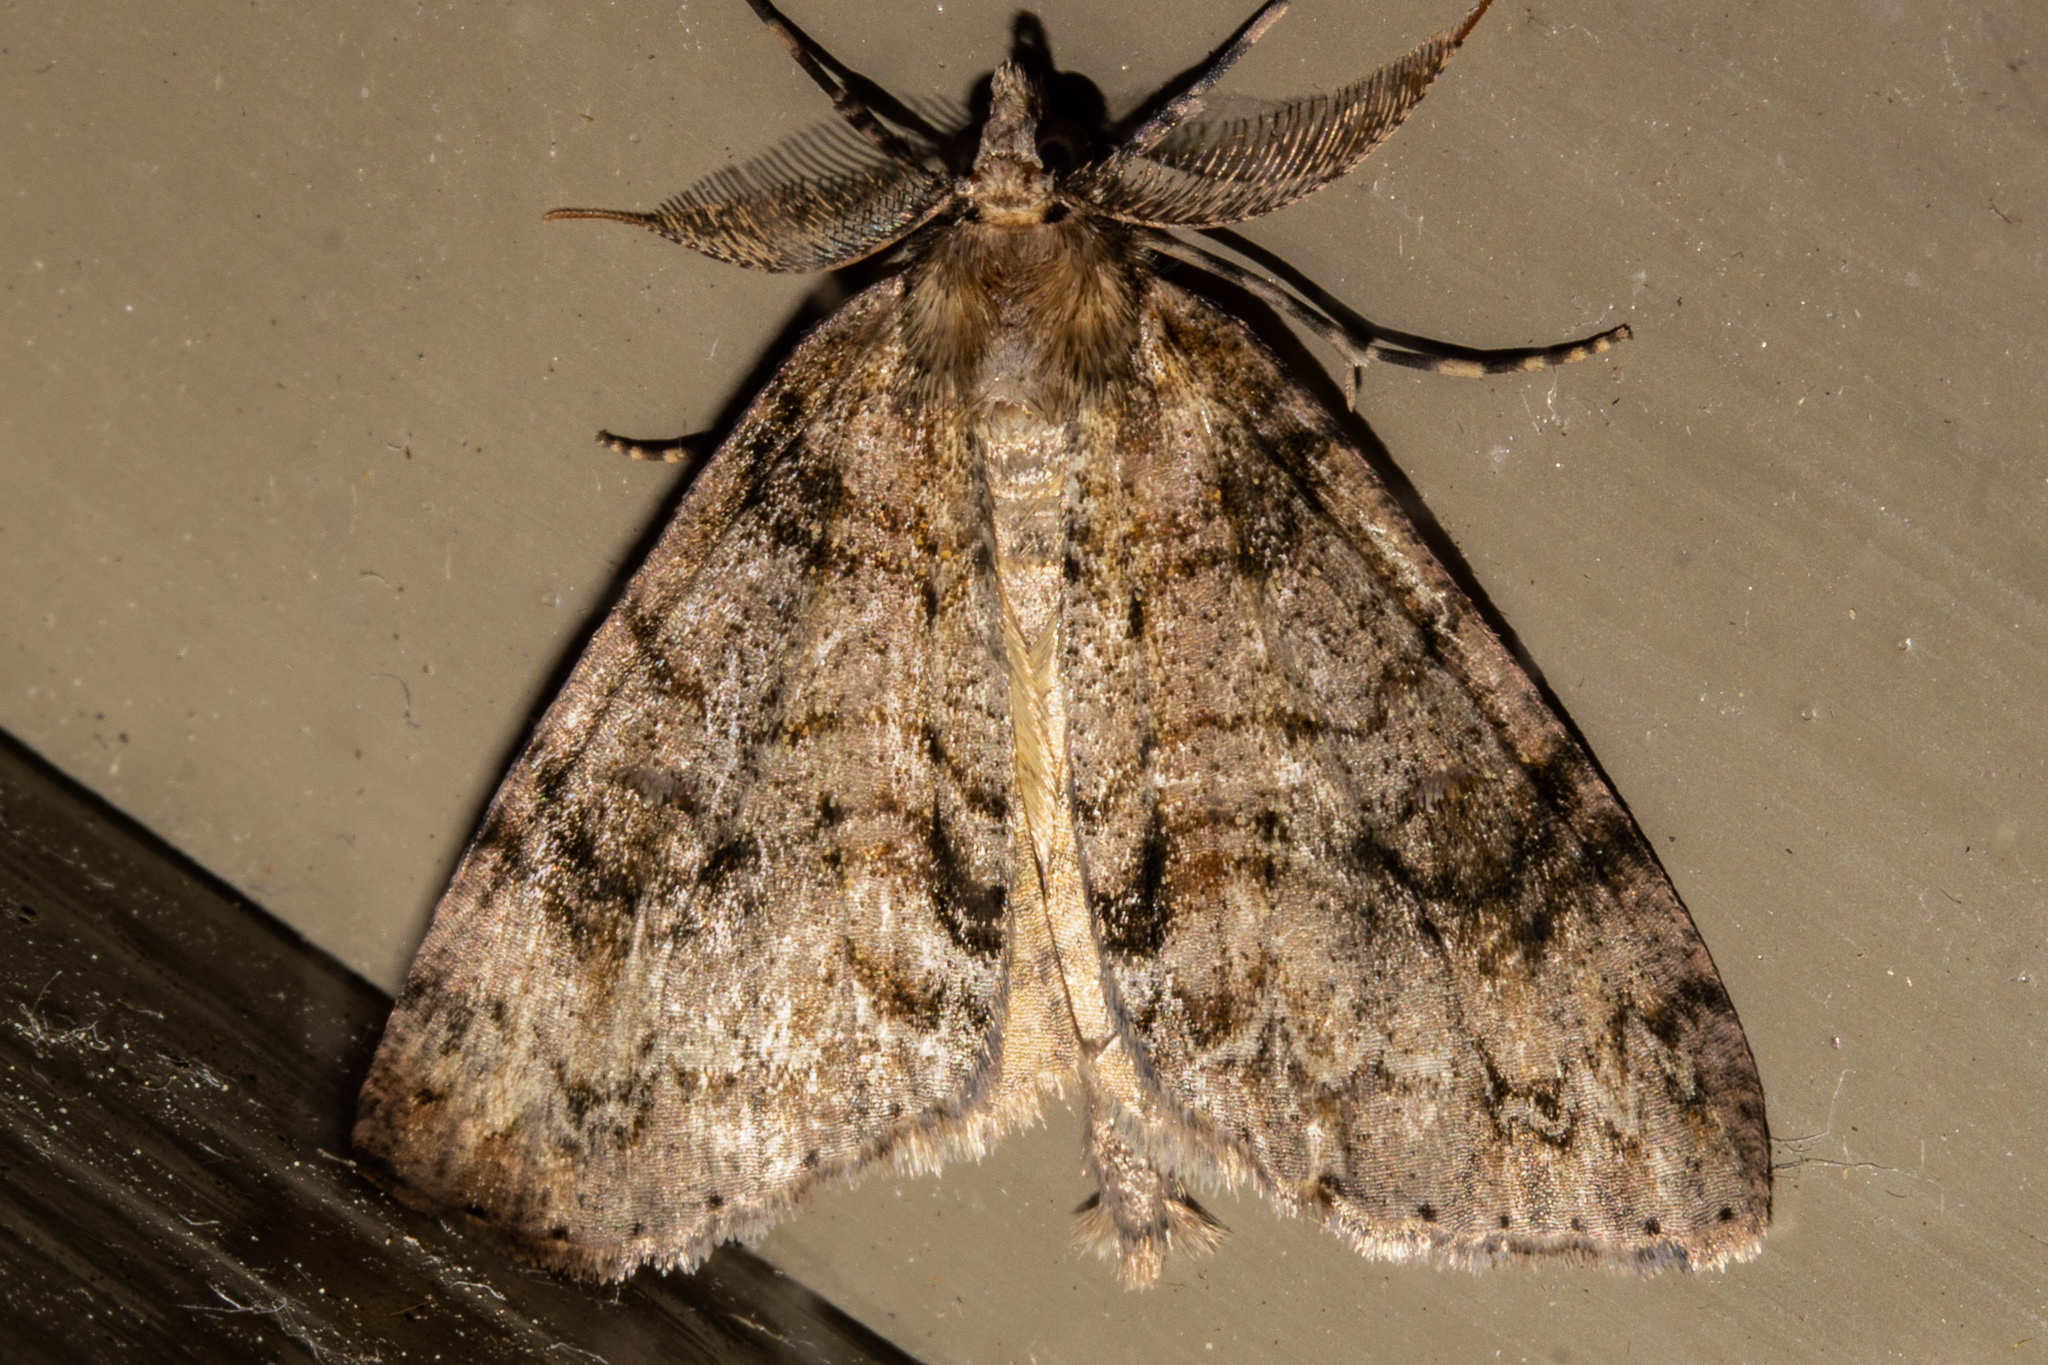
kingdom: Animalia
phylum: Arthropoda
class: Insecta
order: Lepidoptera
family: Geometridae
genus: Pseudocoremia
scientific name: Pseudocoremia suavis
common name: Common forest looper
